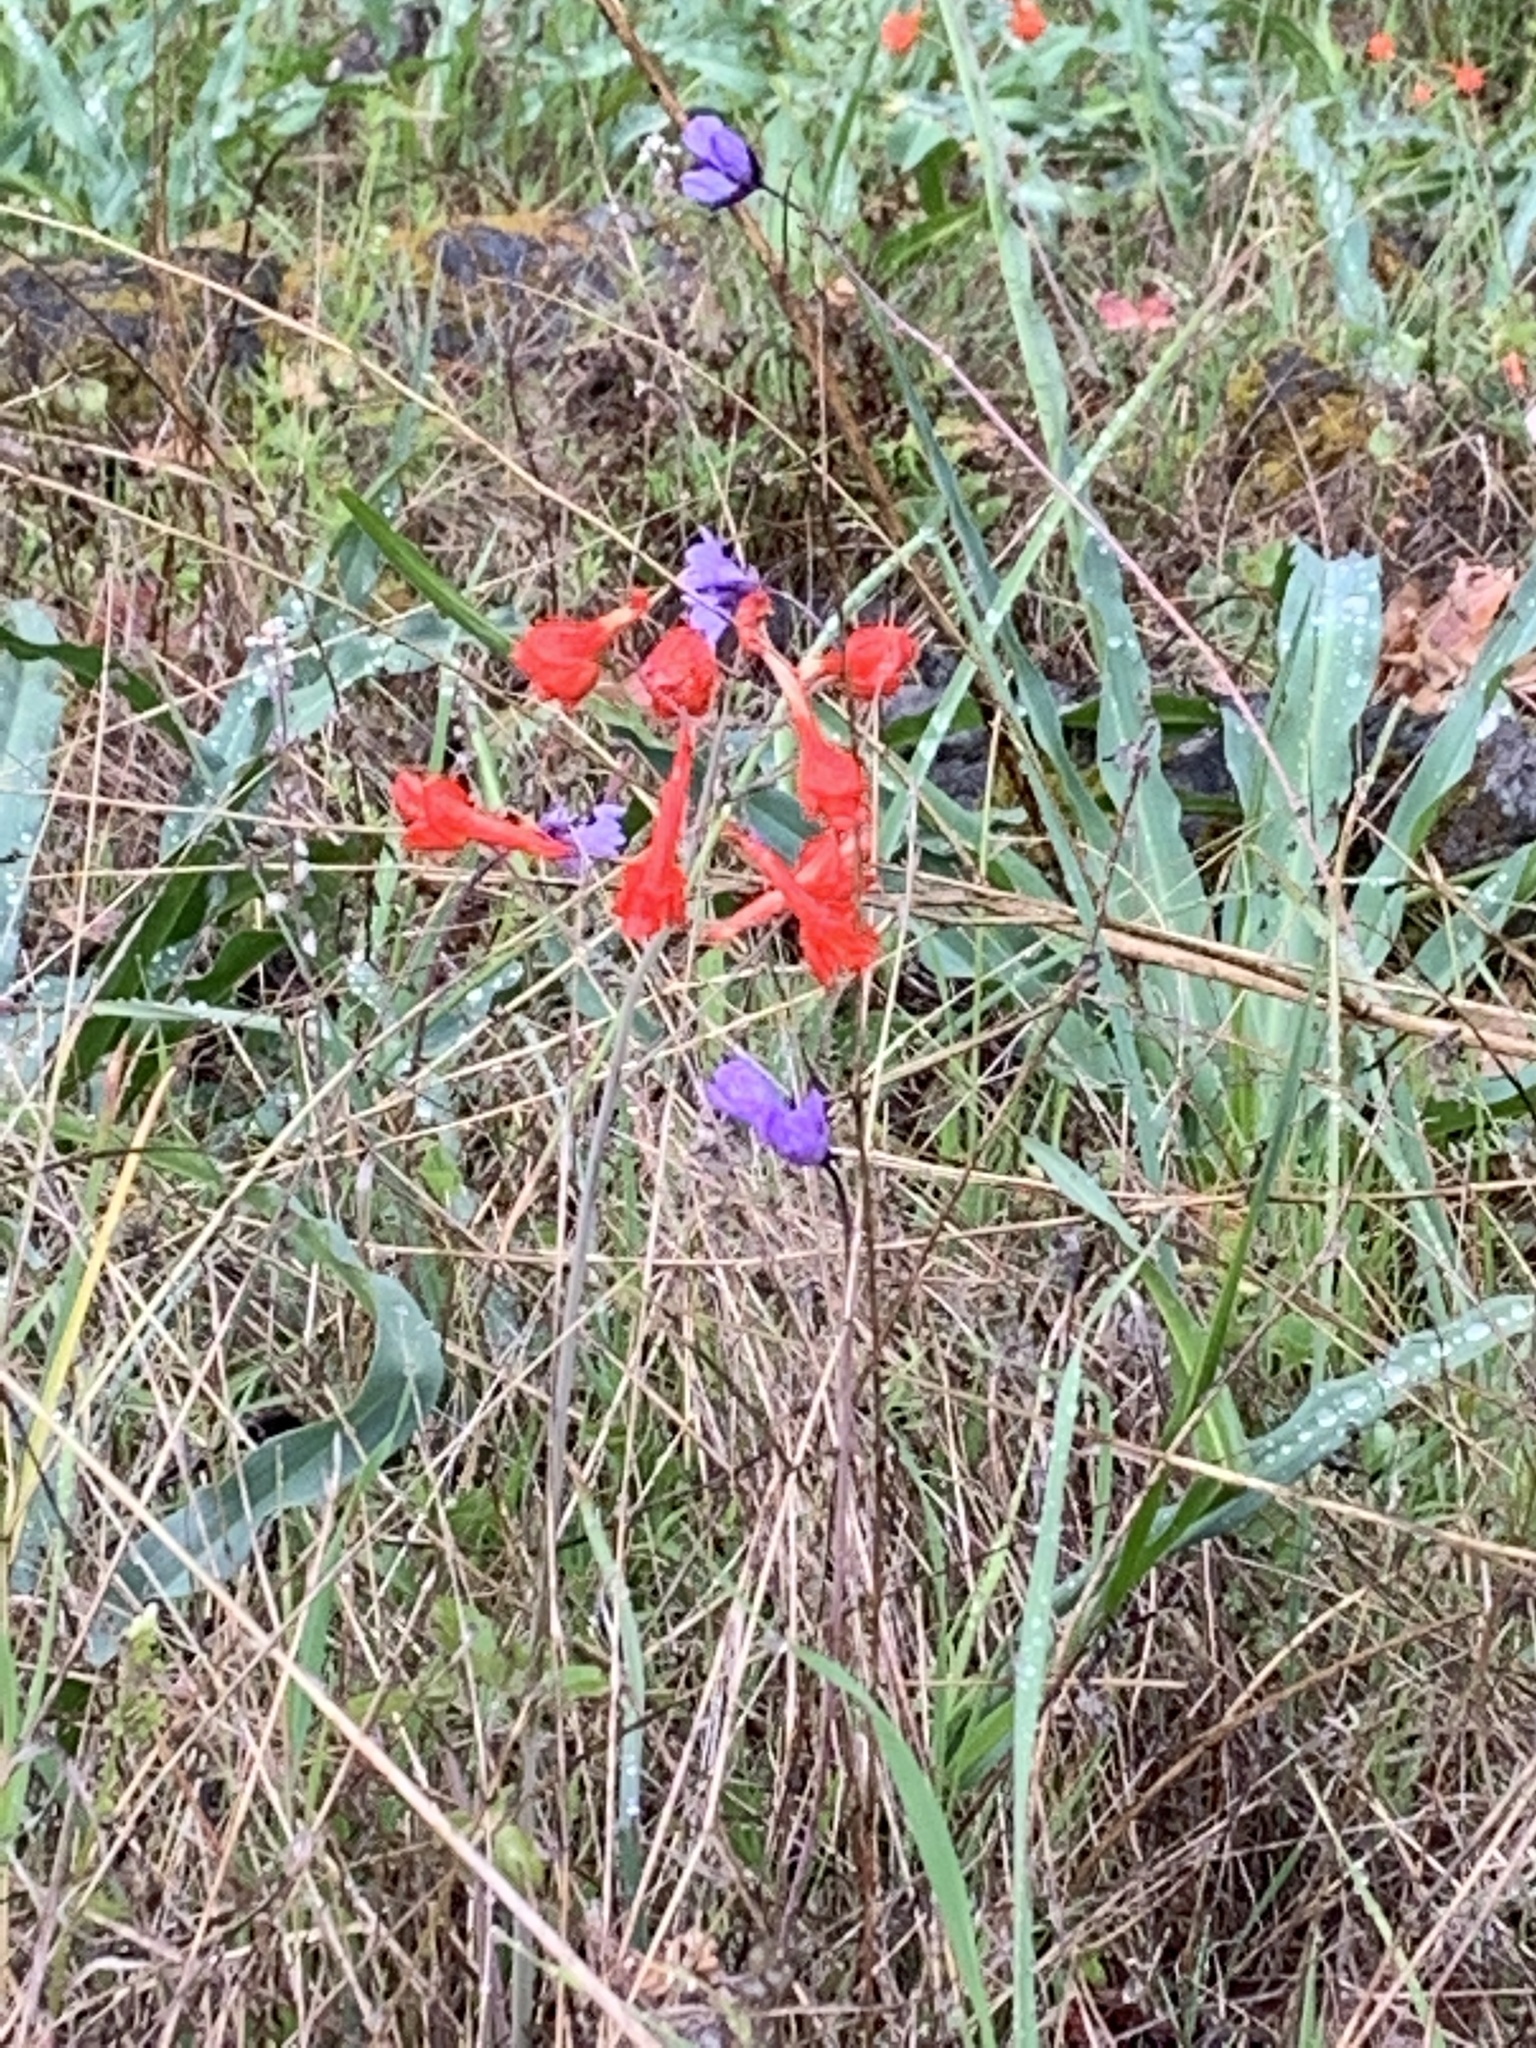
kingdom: Plantae
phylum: Tracheophyta
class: Magnoliopsida
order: Ranunculales
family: Ranunculaceae
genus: Delphinium
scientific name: Delphinium nudicaule
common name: Red larkspur
